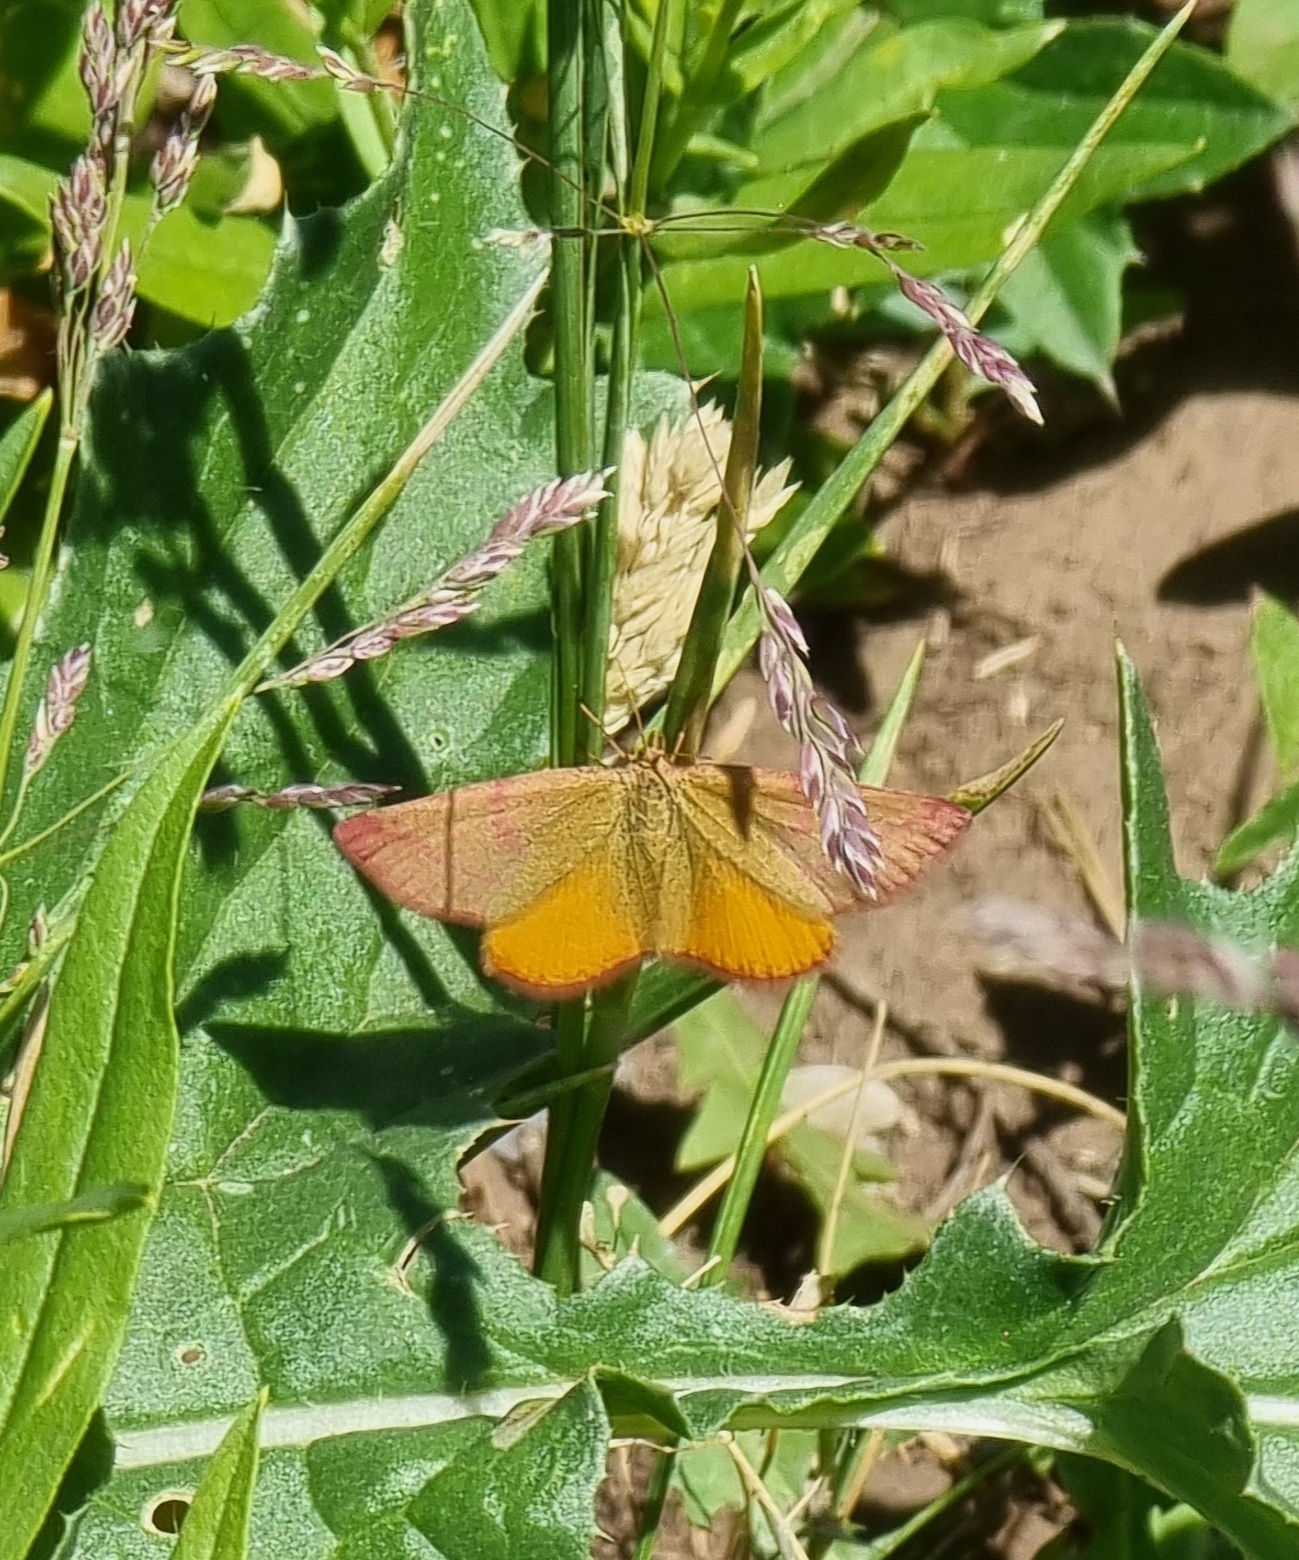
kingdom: Animalia
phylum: Arthropoda
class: Insecta
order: Lepidoptera
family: Geometridae
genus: Lythria
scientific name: Lythria purpuraria
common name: Purple-barred yellow
